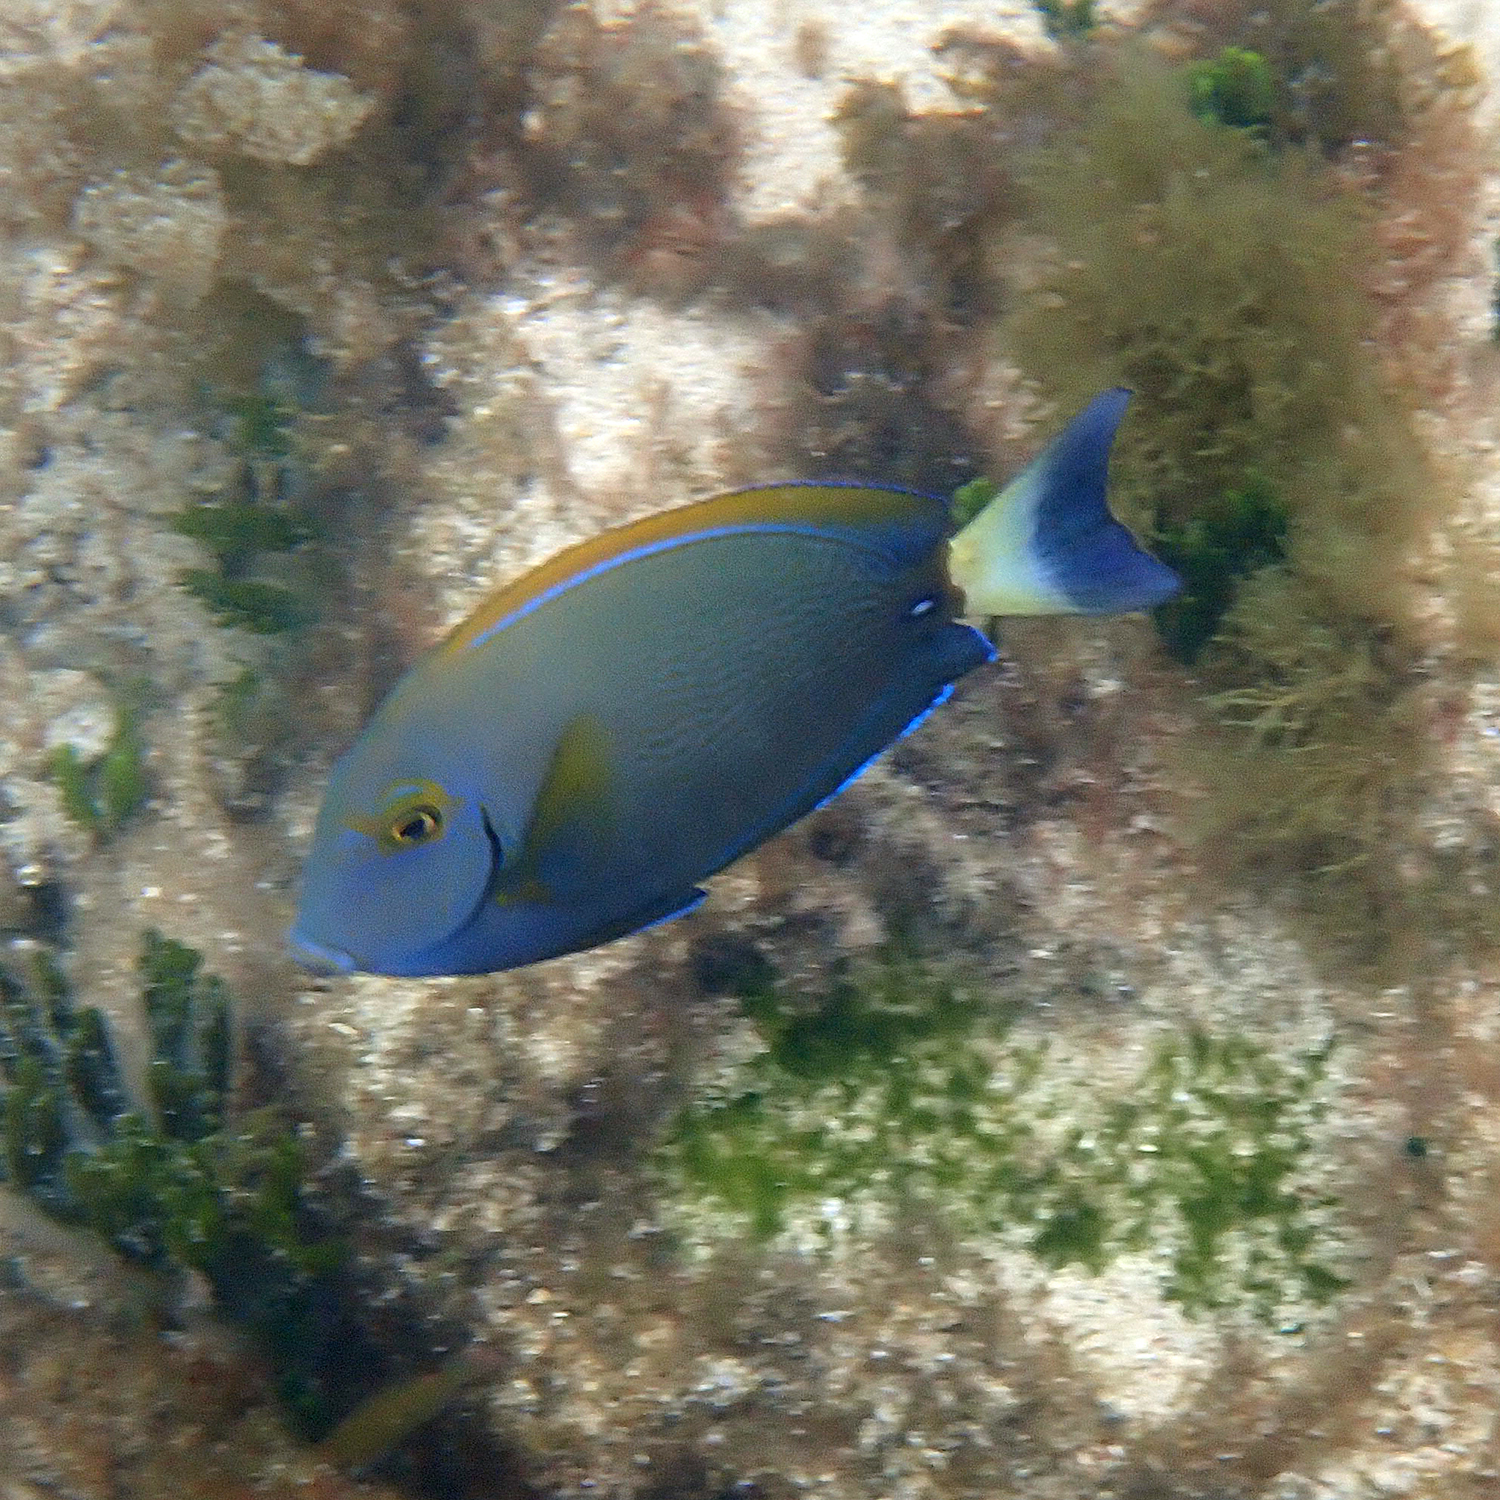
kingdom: Animalia
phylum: Chordata
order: Perciformes
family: Acanthuridae
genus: Acanthurus
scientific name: Acanthurus dussumieri
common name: Dussumier's surgeonfish
